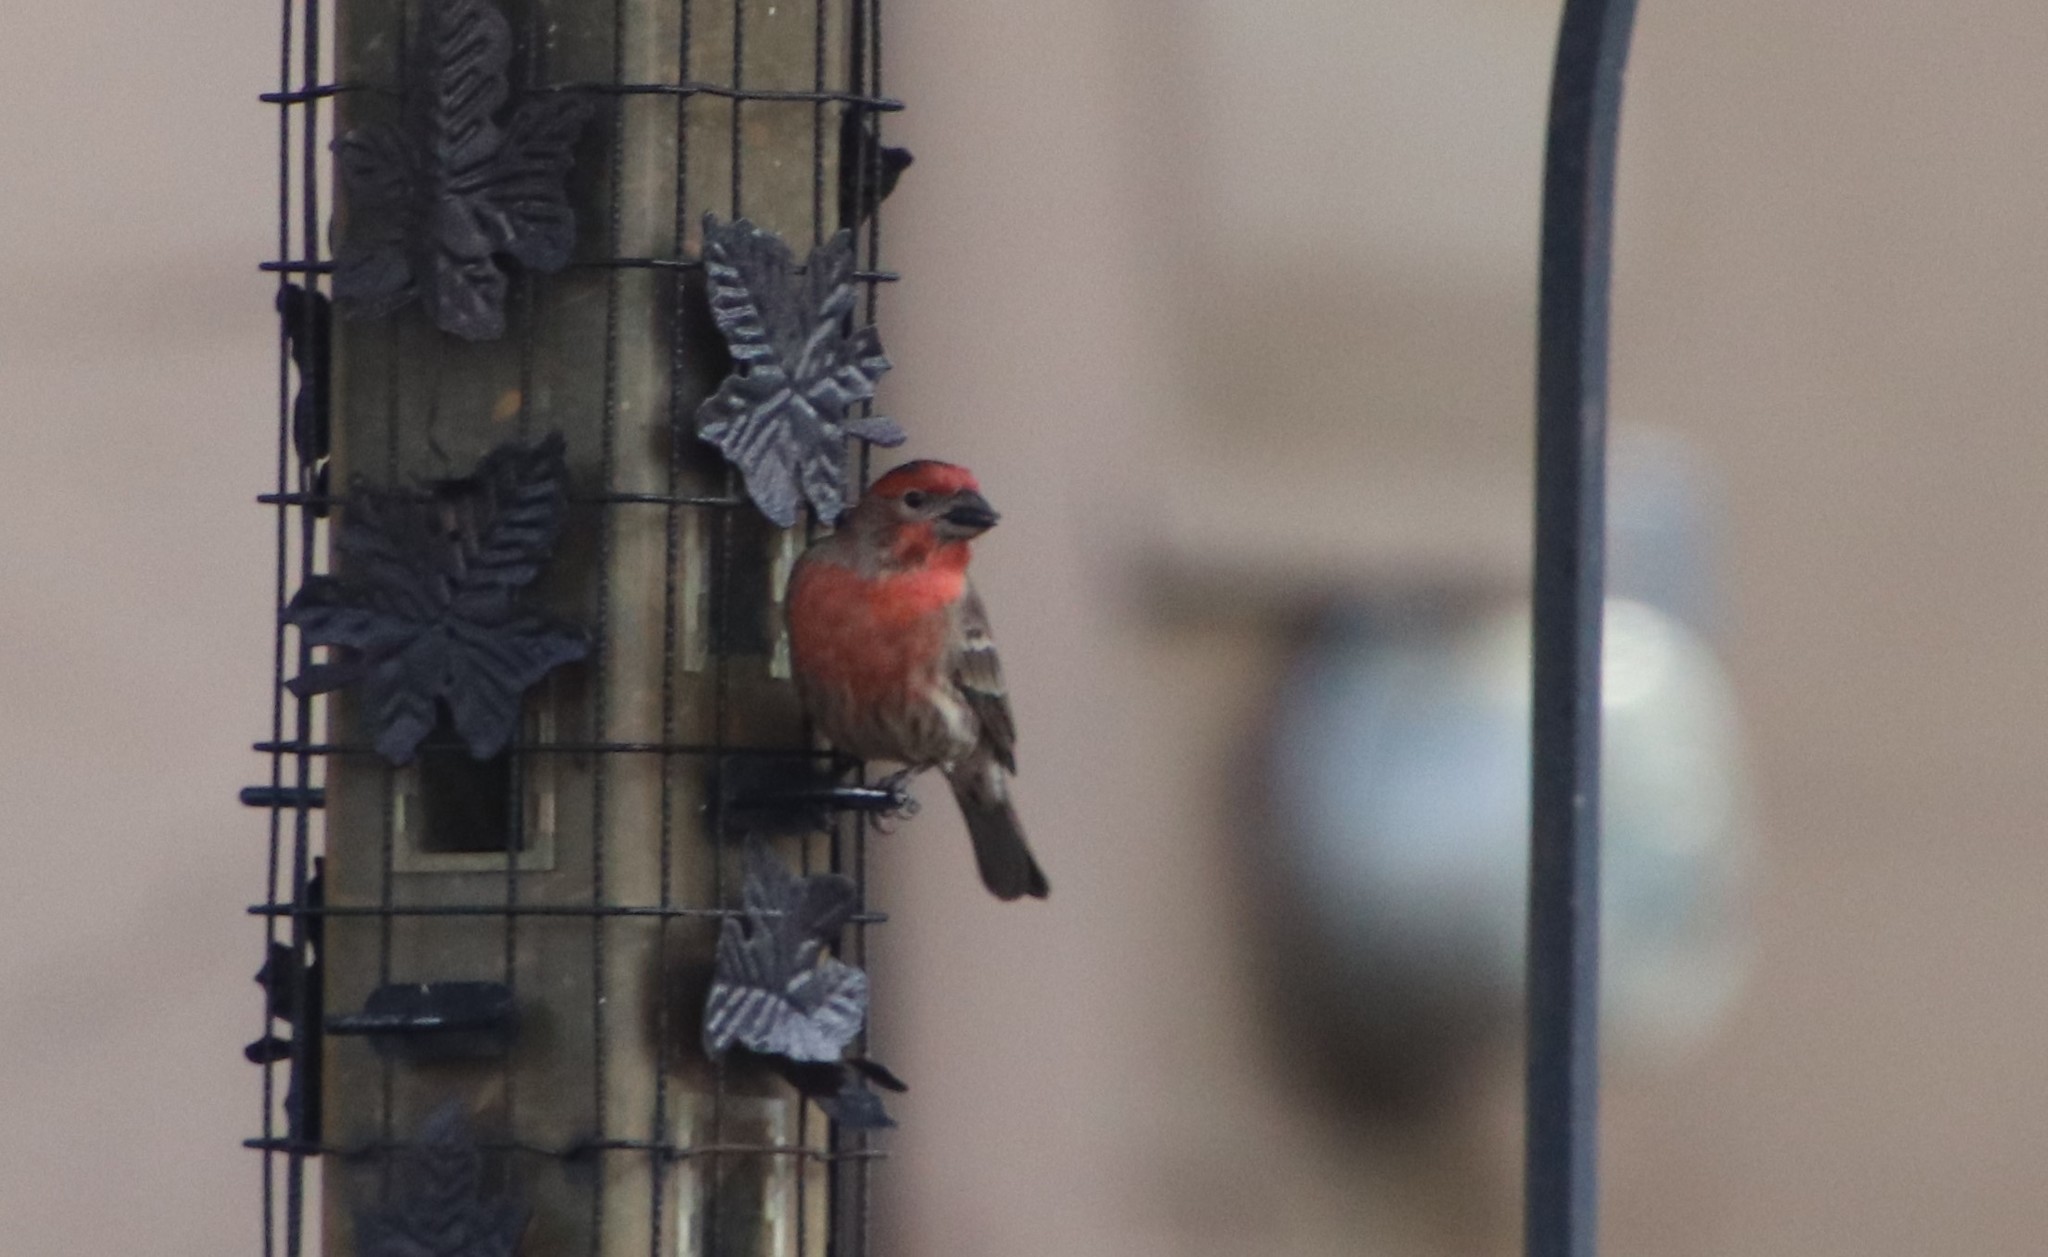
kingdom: Animalia
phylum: Chordata
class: Aves
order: Passeriformes
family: Fringillidae
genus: Haemorhous
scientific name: Haemorhous mexicanus
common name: House finch
